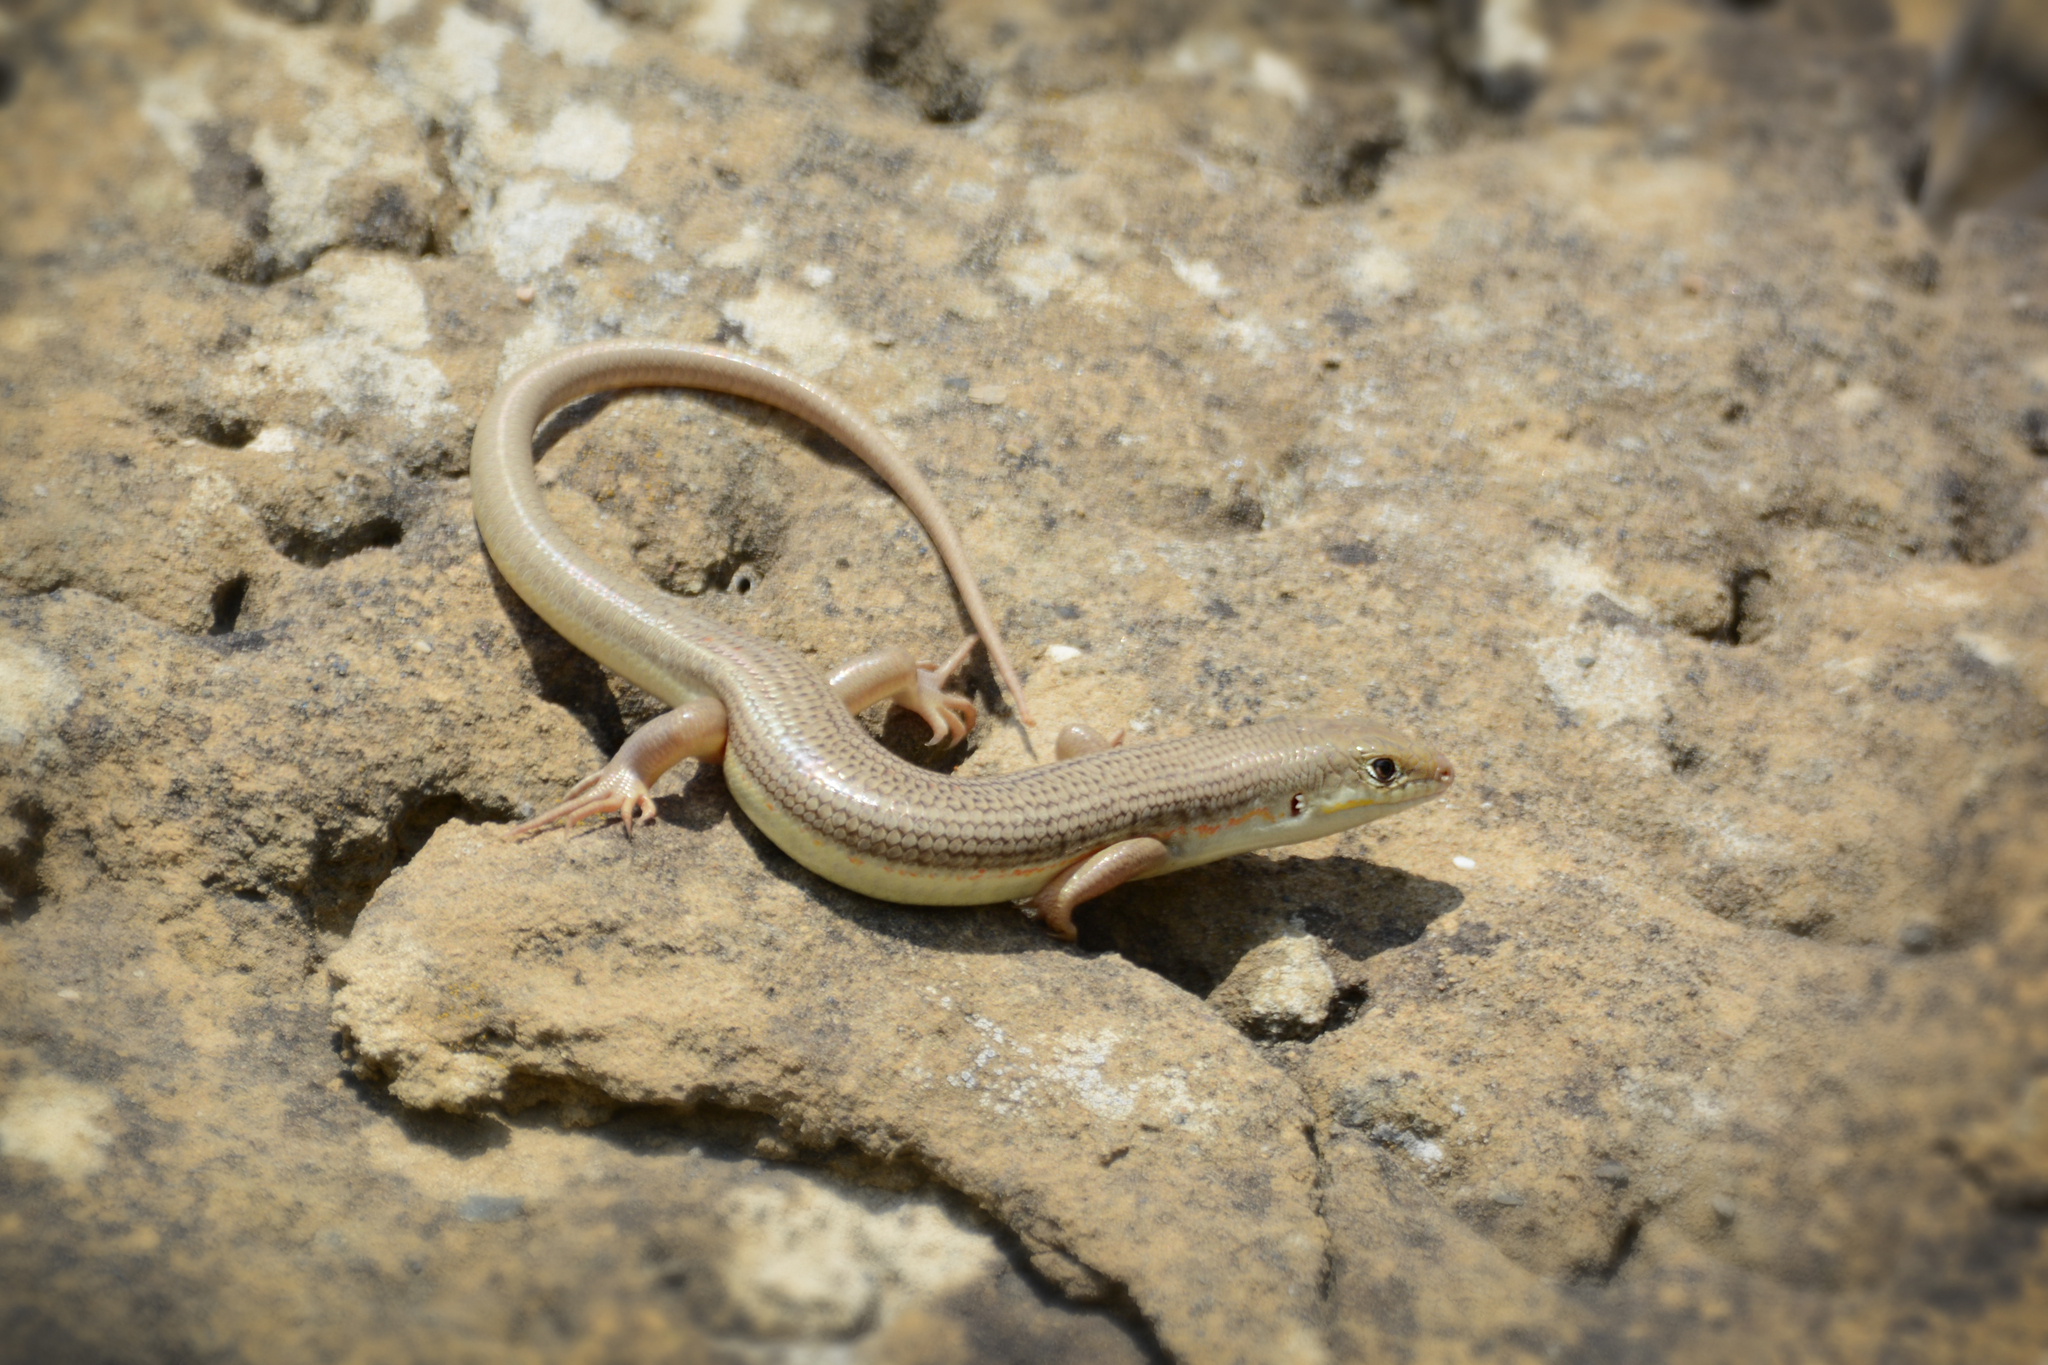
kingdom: Animalia
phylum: Chordata
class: Squamata
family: Scincidae
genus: Eumeces
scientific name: Eumeces schneiderii
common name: Schneider's skink
